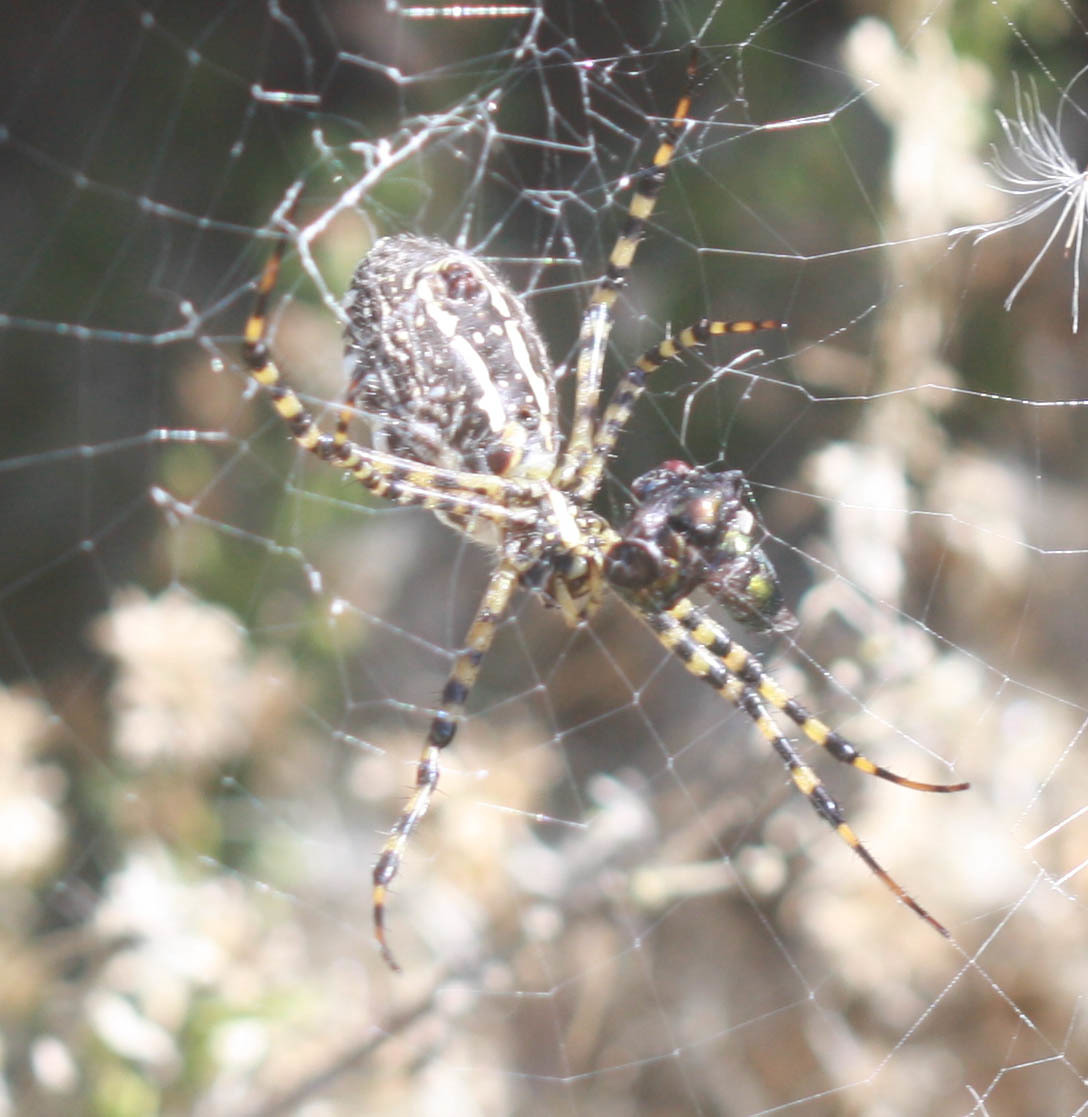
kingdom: Animalia
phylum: Arthropoda
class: Arachnida
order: Araneae
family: Araneidae
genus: Argiope
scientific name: Argiope trifasciata
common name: Banded garden spider
